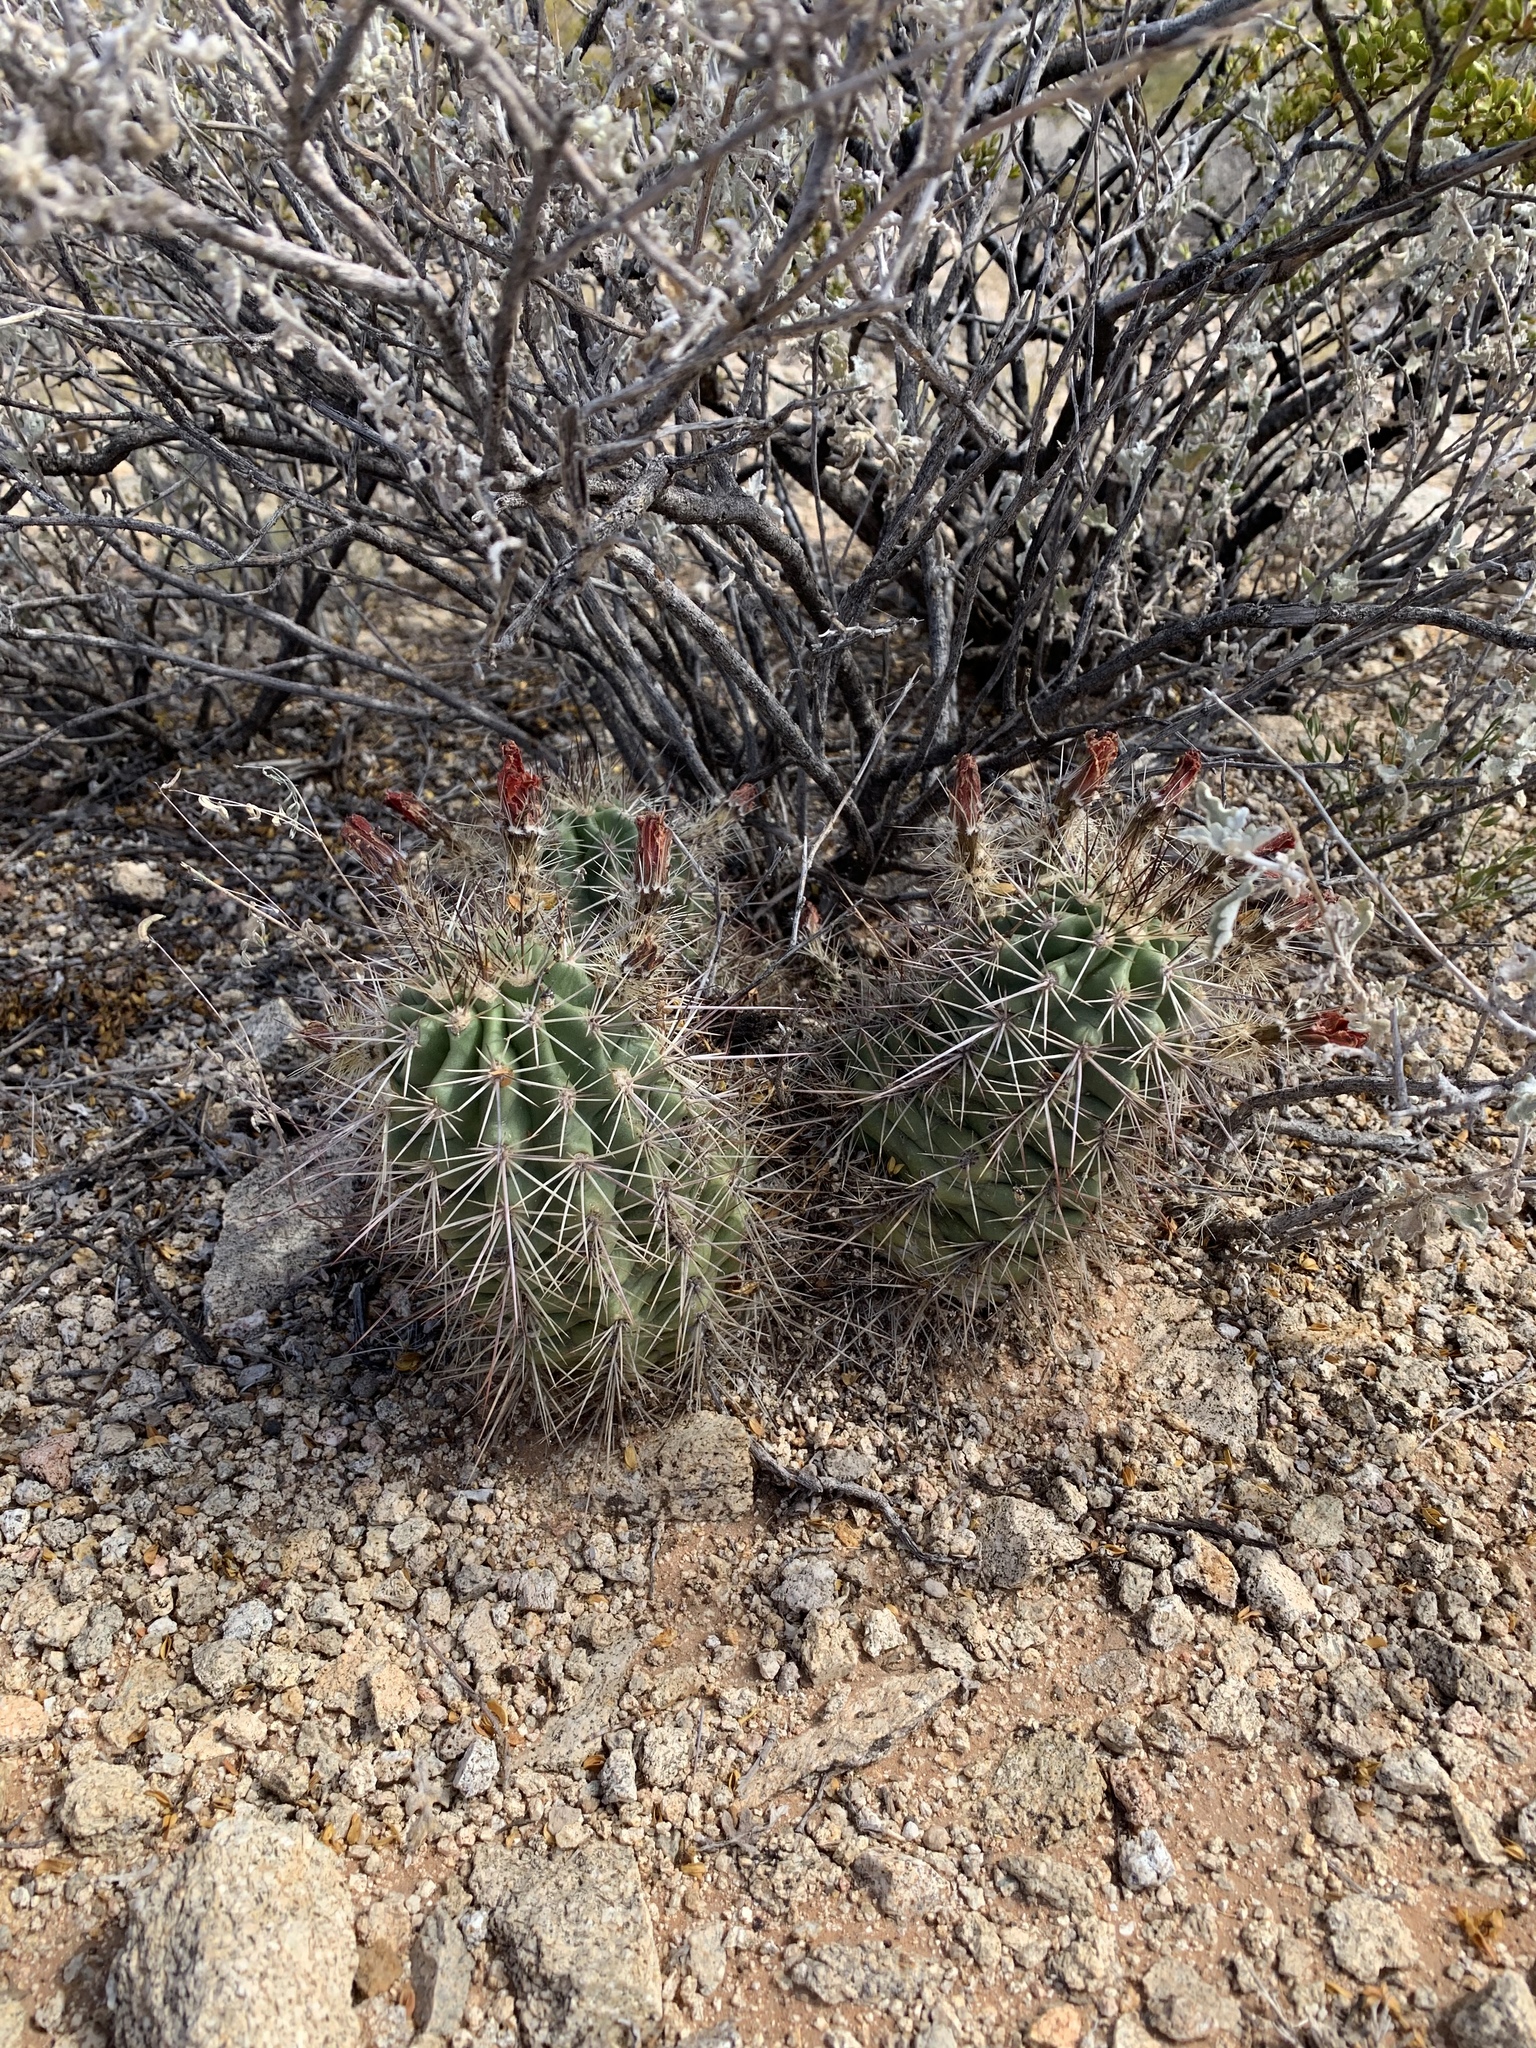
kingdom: Plantae
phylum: Tracheophyta
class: Magnoliopsida
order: Caryophyllales
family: Cactaceae
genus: Echinocereus
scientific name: Echinocereus coccineus
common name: Scarlet hedgehog cactus
